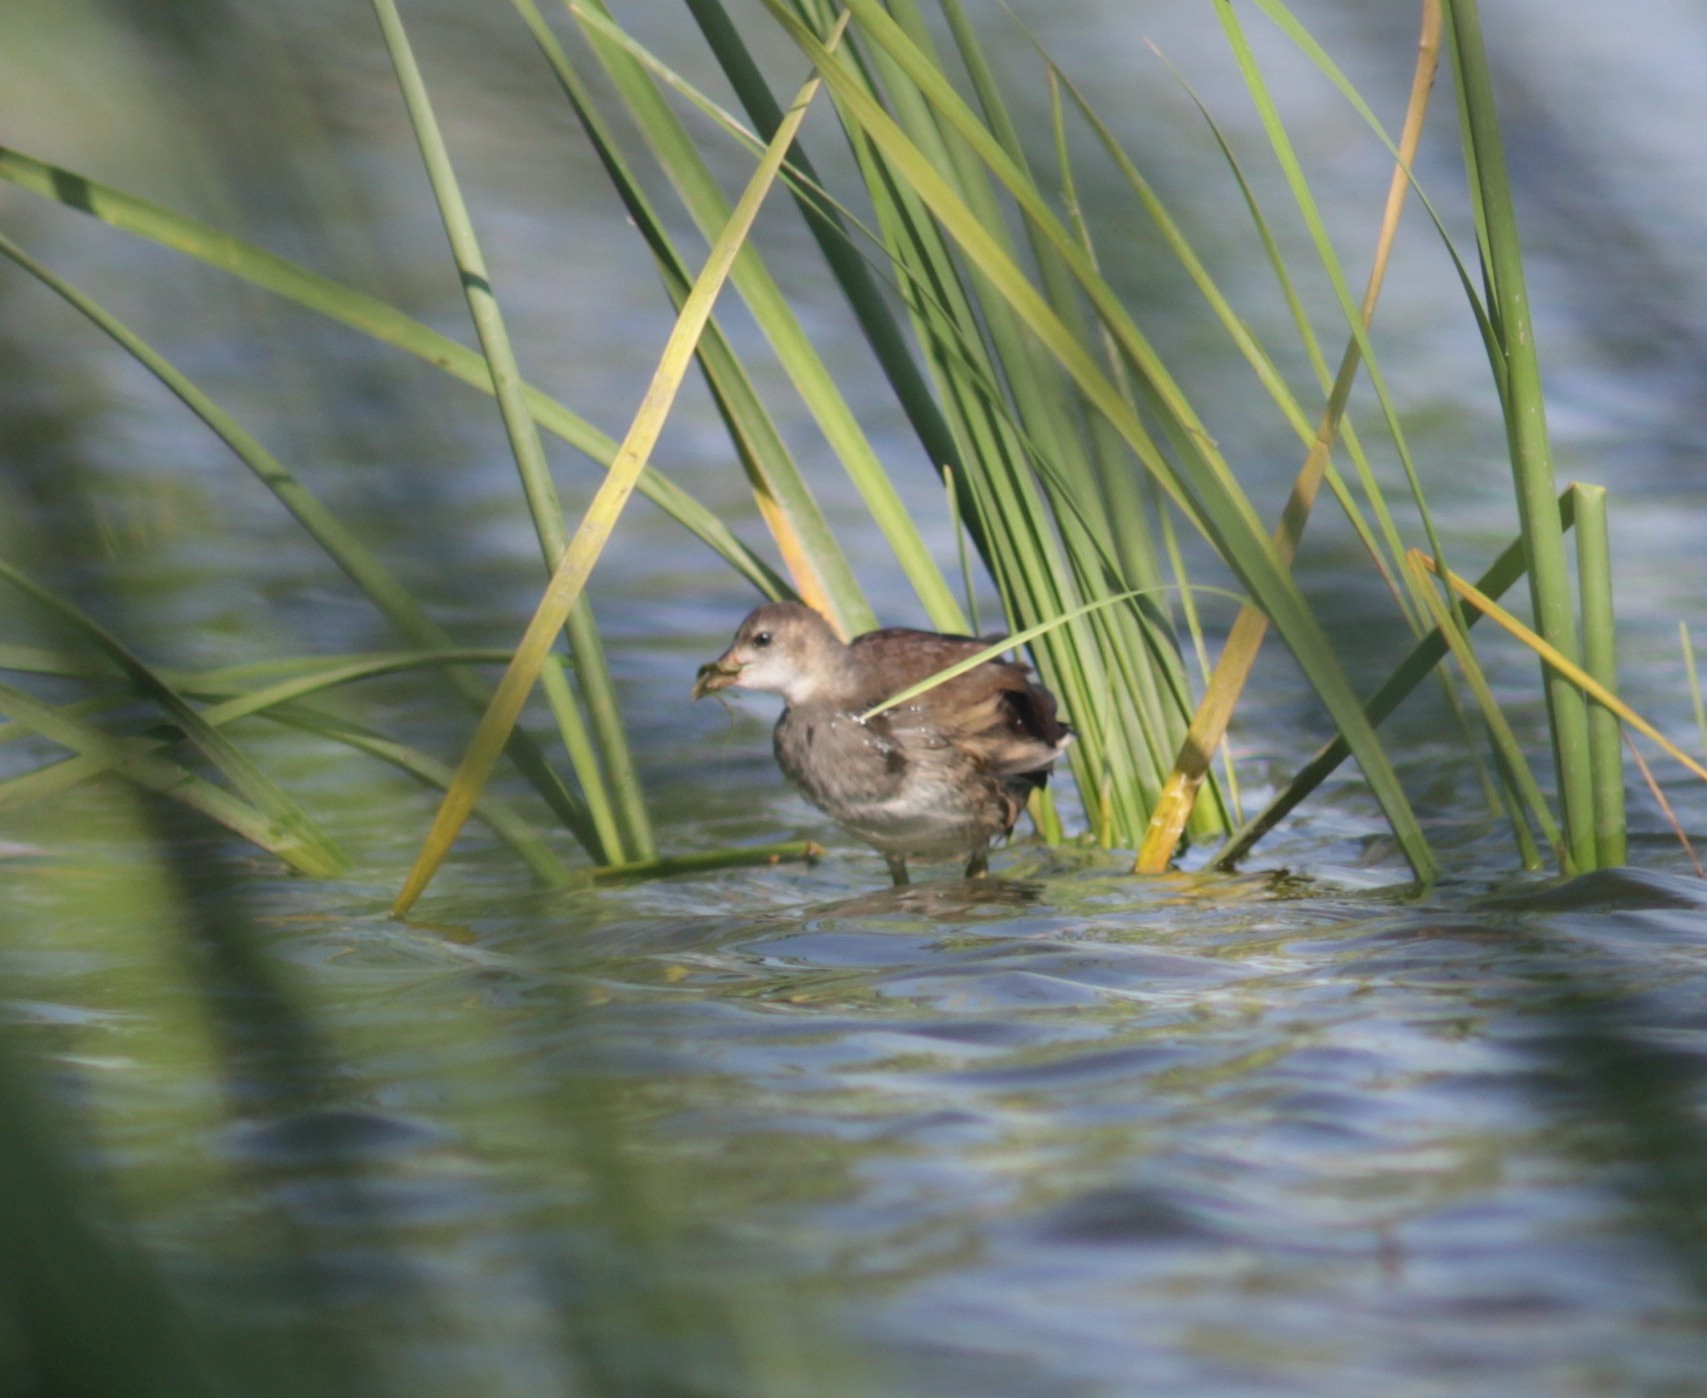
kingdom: Animalia
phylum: Chordata
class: Aves
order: Gruiformes
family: Rallidae
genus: Gallinula
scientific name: Gallinula chloropus
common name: Common moorhen
